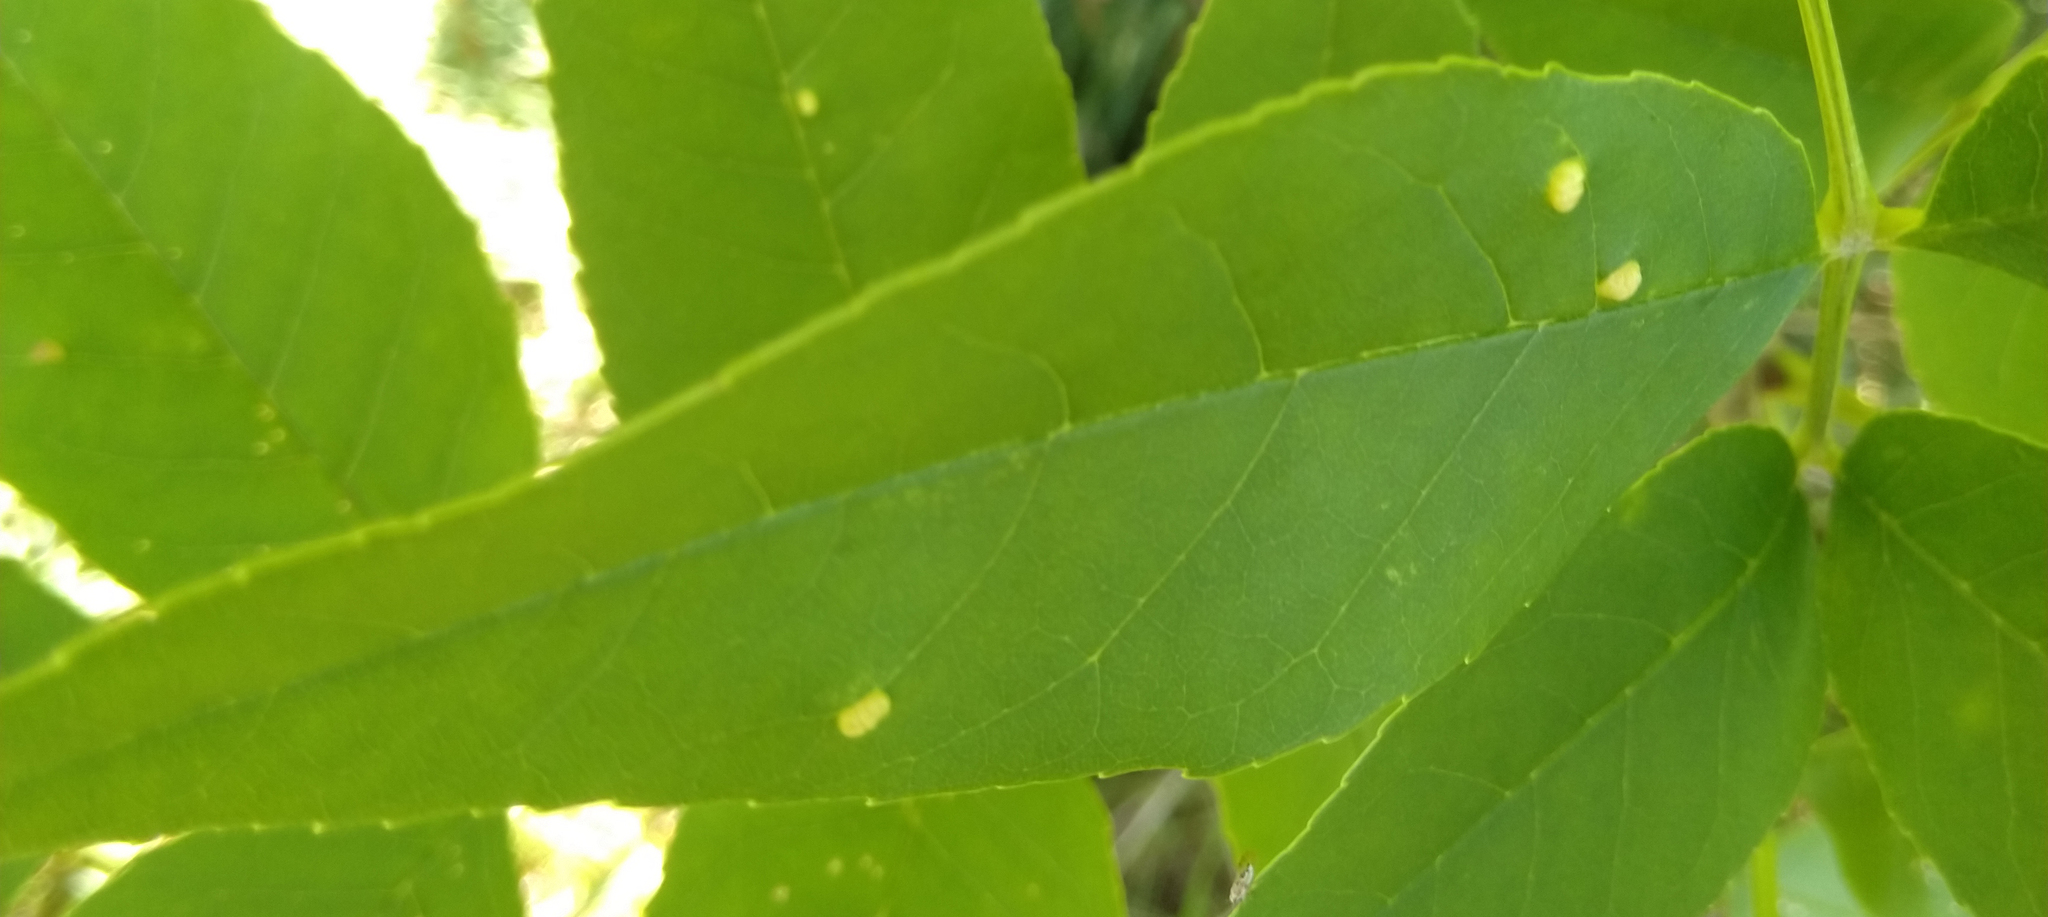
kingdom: Animalia
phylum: Arthropoda
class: Arachnida
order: Trombidiformes
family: Eriophyidae
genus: Aceria
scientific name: Aceria fraxinicola
